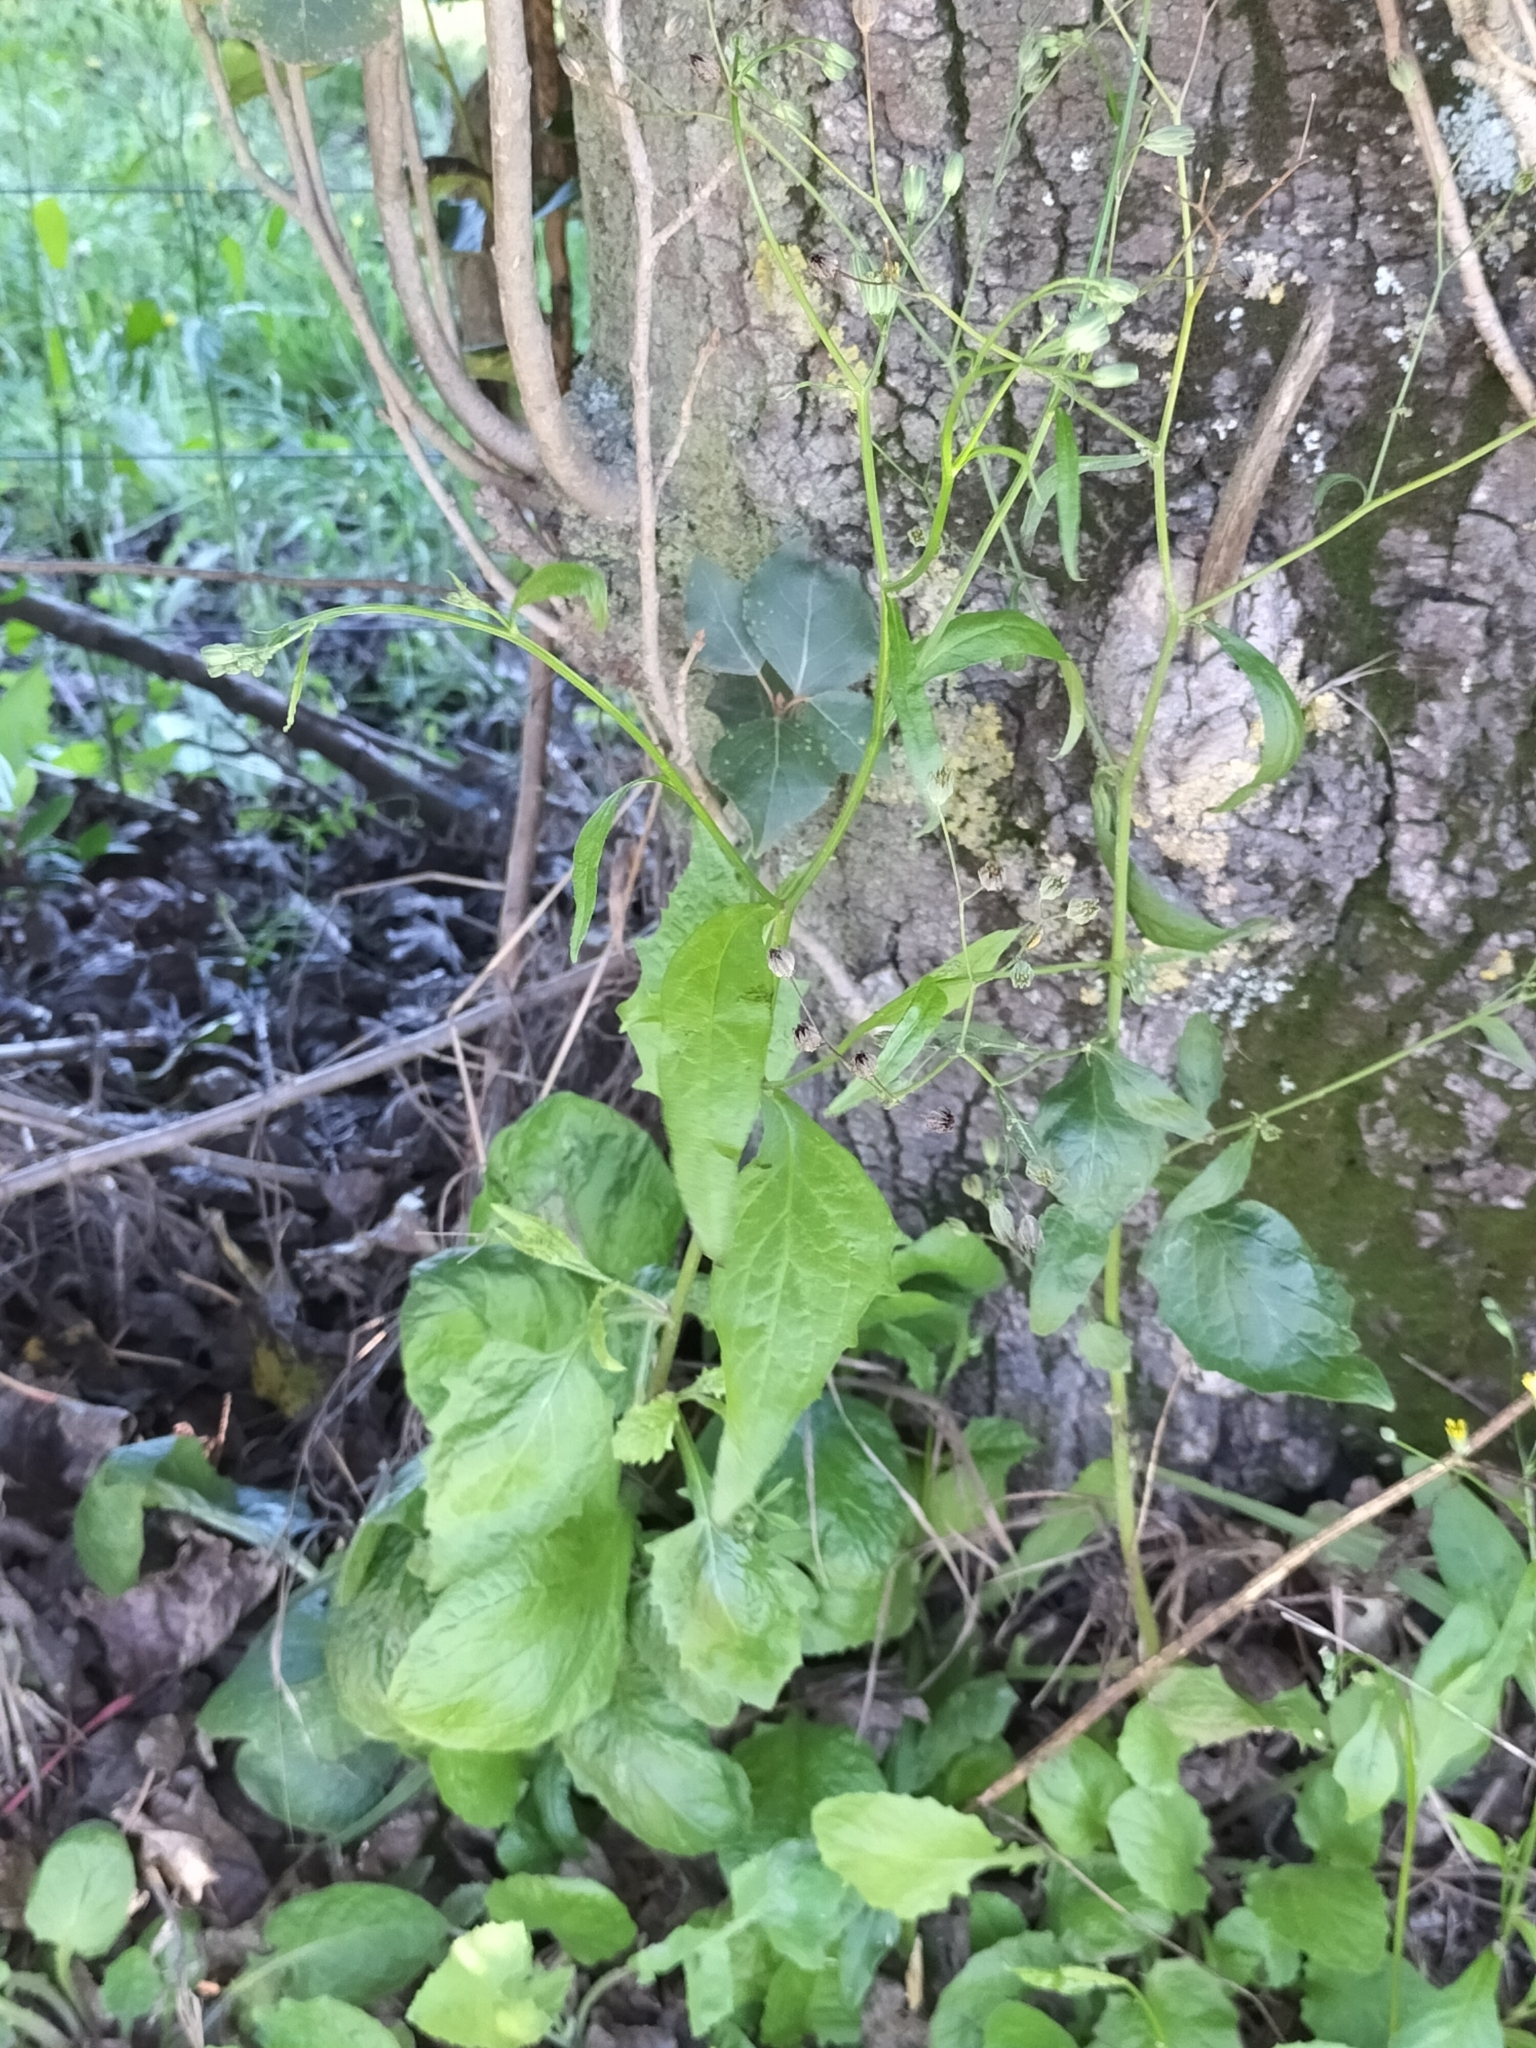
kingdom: Plantae
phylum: Tracheophyta
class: Magnoliopsida
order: Asterales
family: Asteraceae
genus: Lapsana
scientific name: Lapsana communis
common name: Nipplewort
